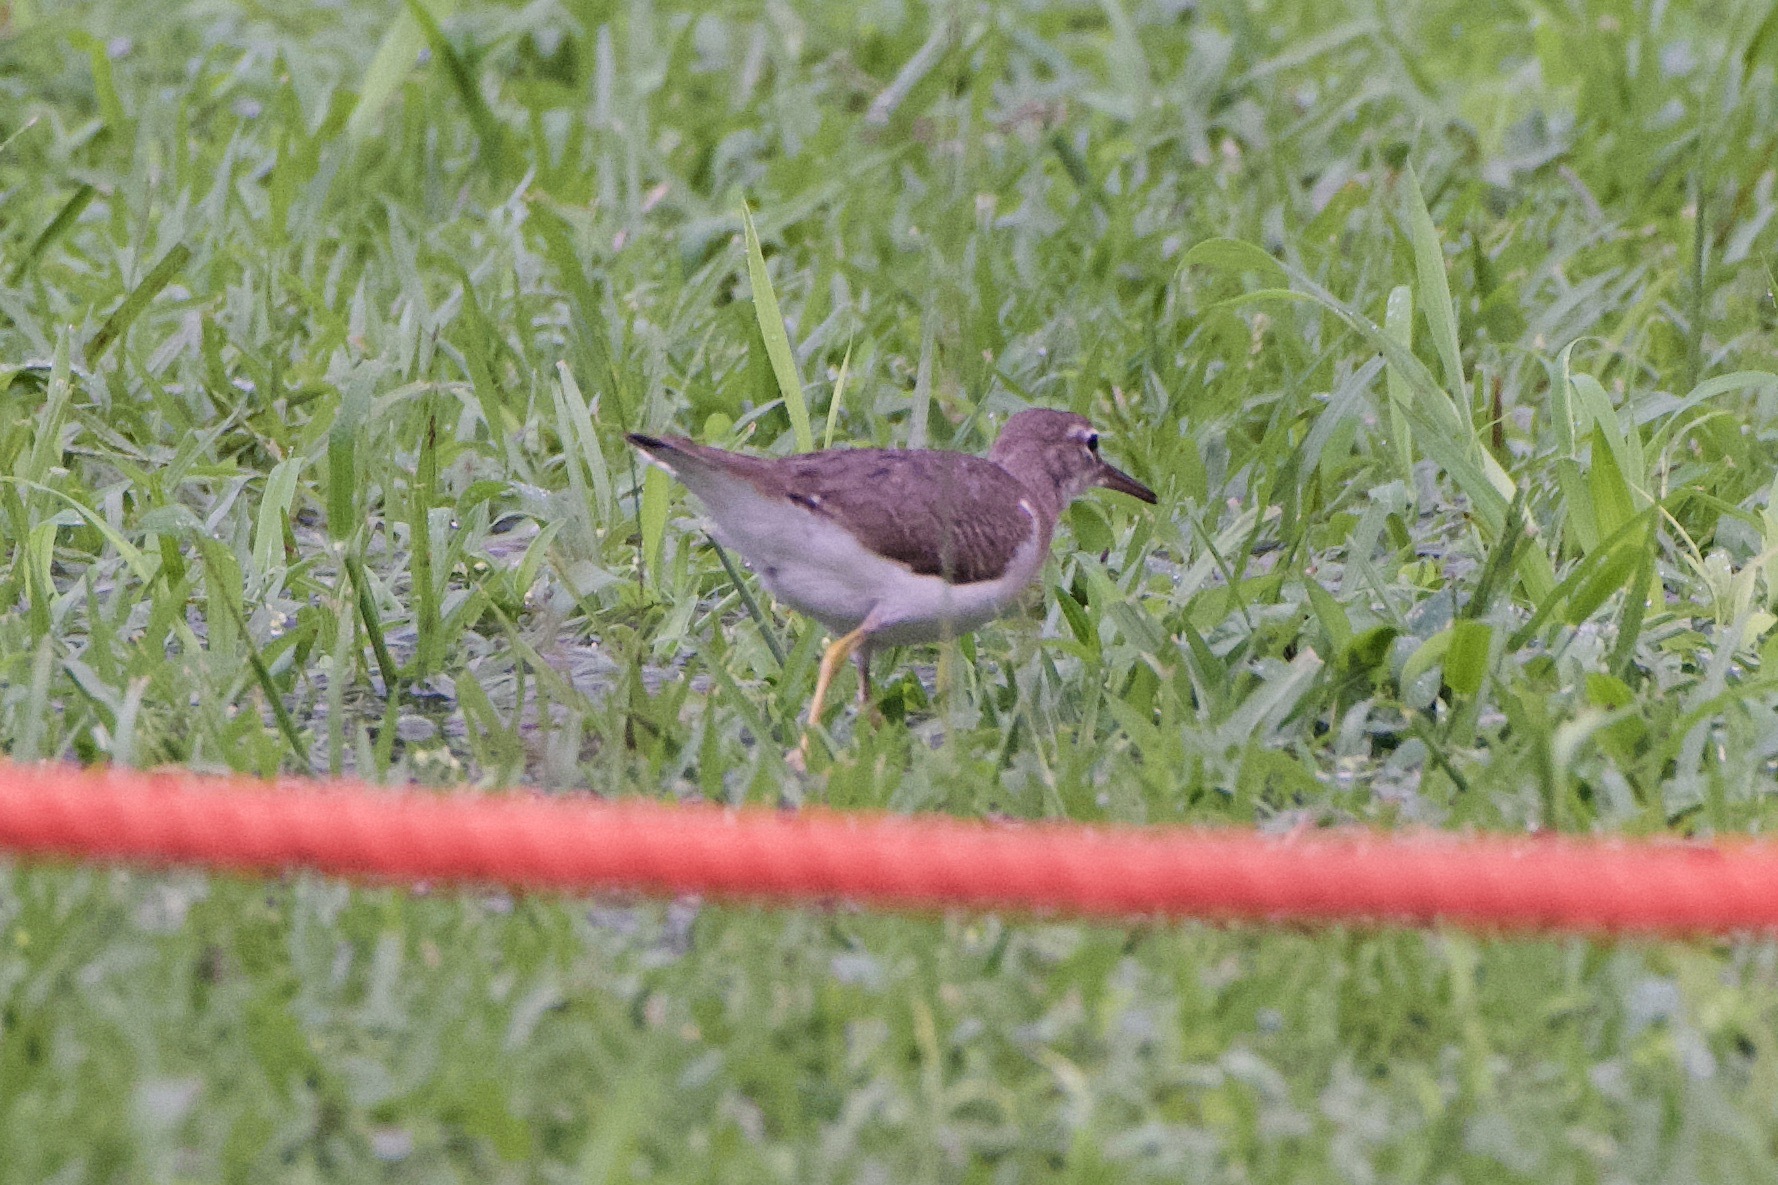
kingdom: Animalia
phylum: Chordata
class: Aves
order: Charadriiformes
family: Scolopacidae
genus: Actitis
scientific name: Actitis macularius
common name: Spotted sandpiper
